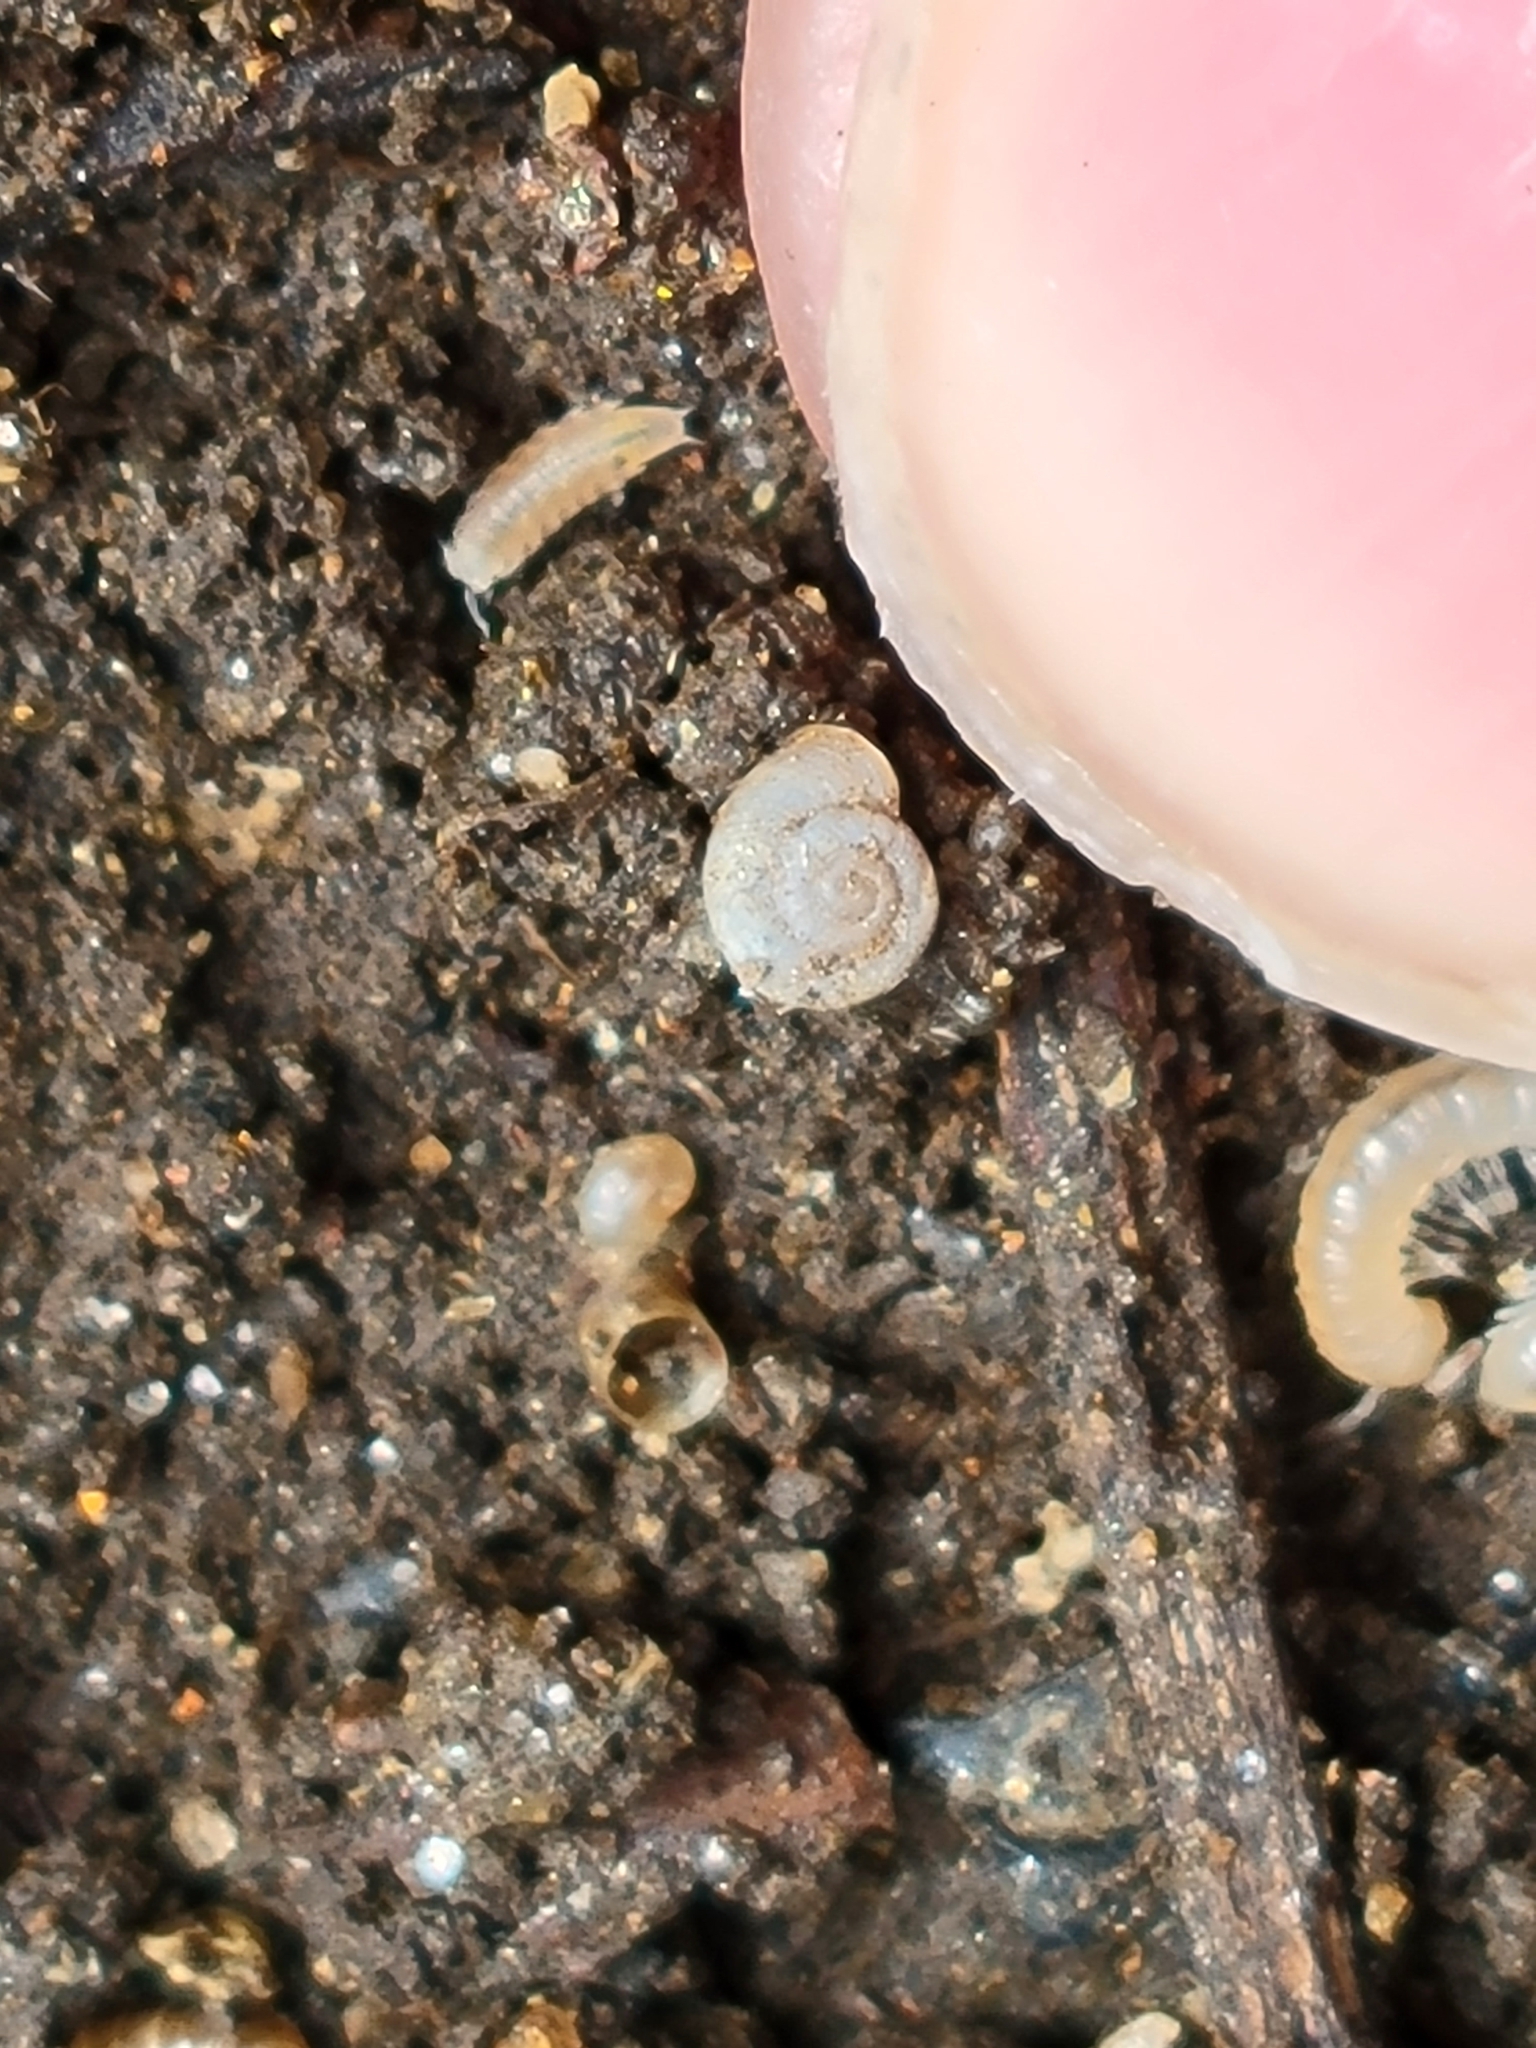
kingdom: Animalia
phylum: Mollusca
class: Gastropoda
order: Stylommatophora
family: Valloniidae
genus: Vallonia
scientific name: Vallonia excentrica
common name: Eccentric grass snail
